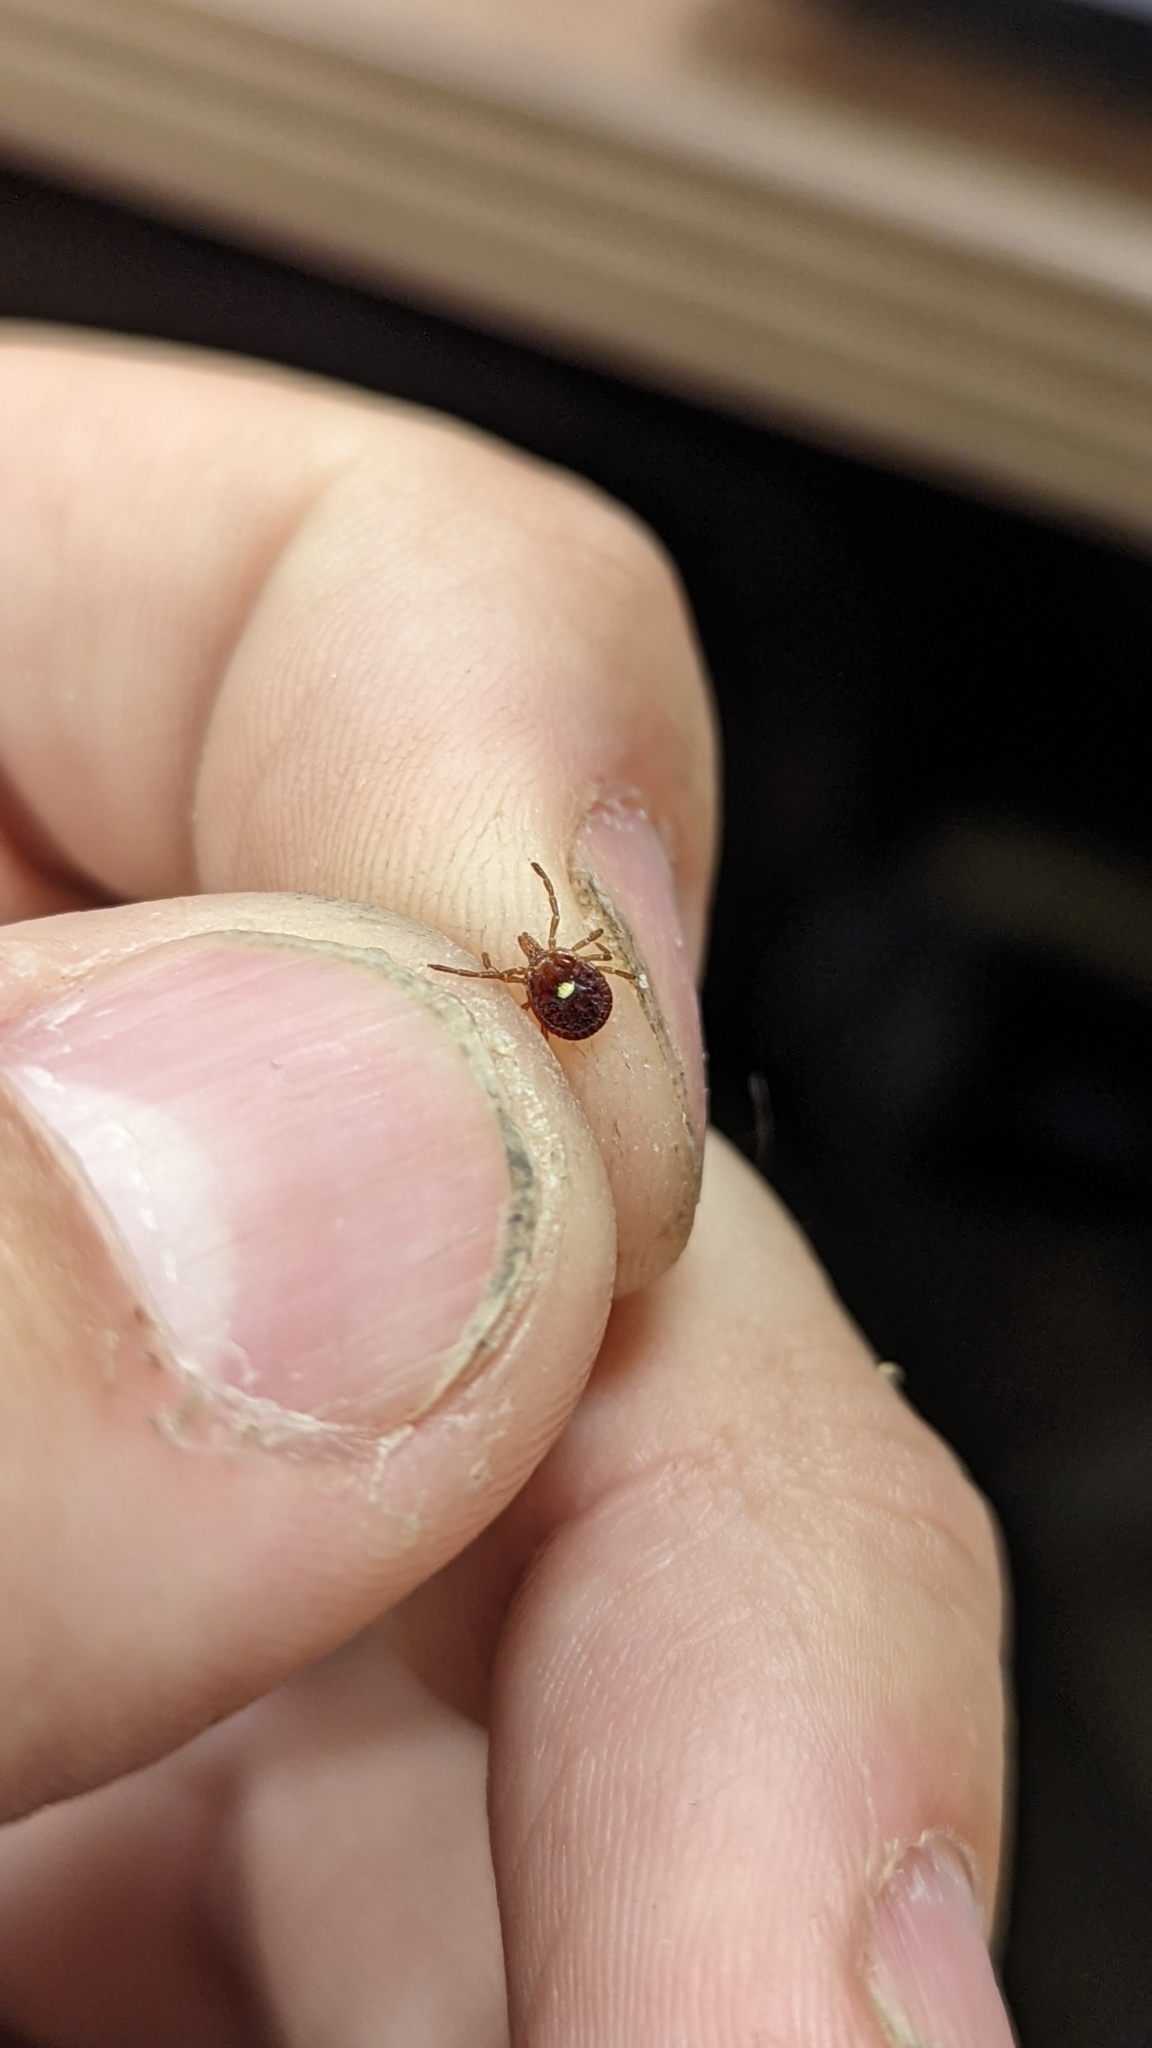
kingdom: Animalia
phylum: Arthropoda
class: Arachnida
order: Ixodida
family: Ixodidae
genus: Amblyomma
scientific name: Amblyomma americanum
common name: Lone star tick
